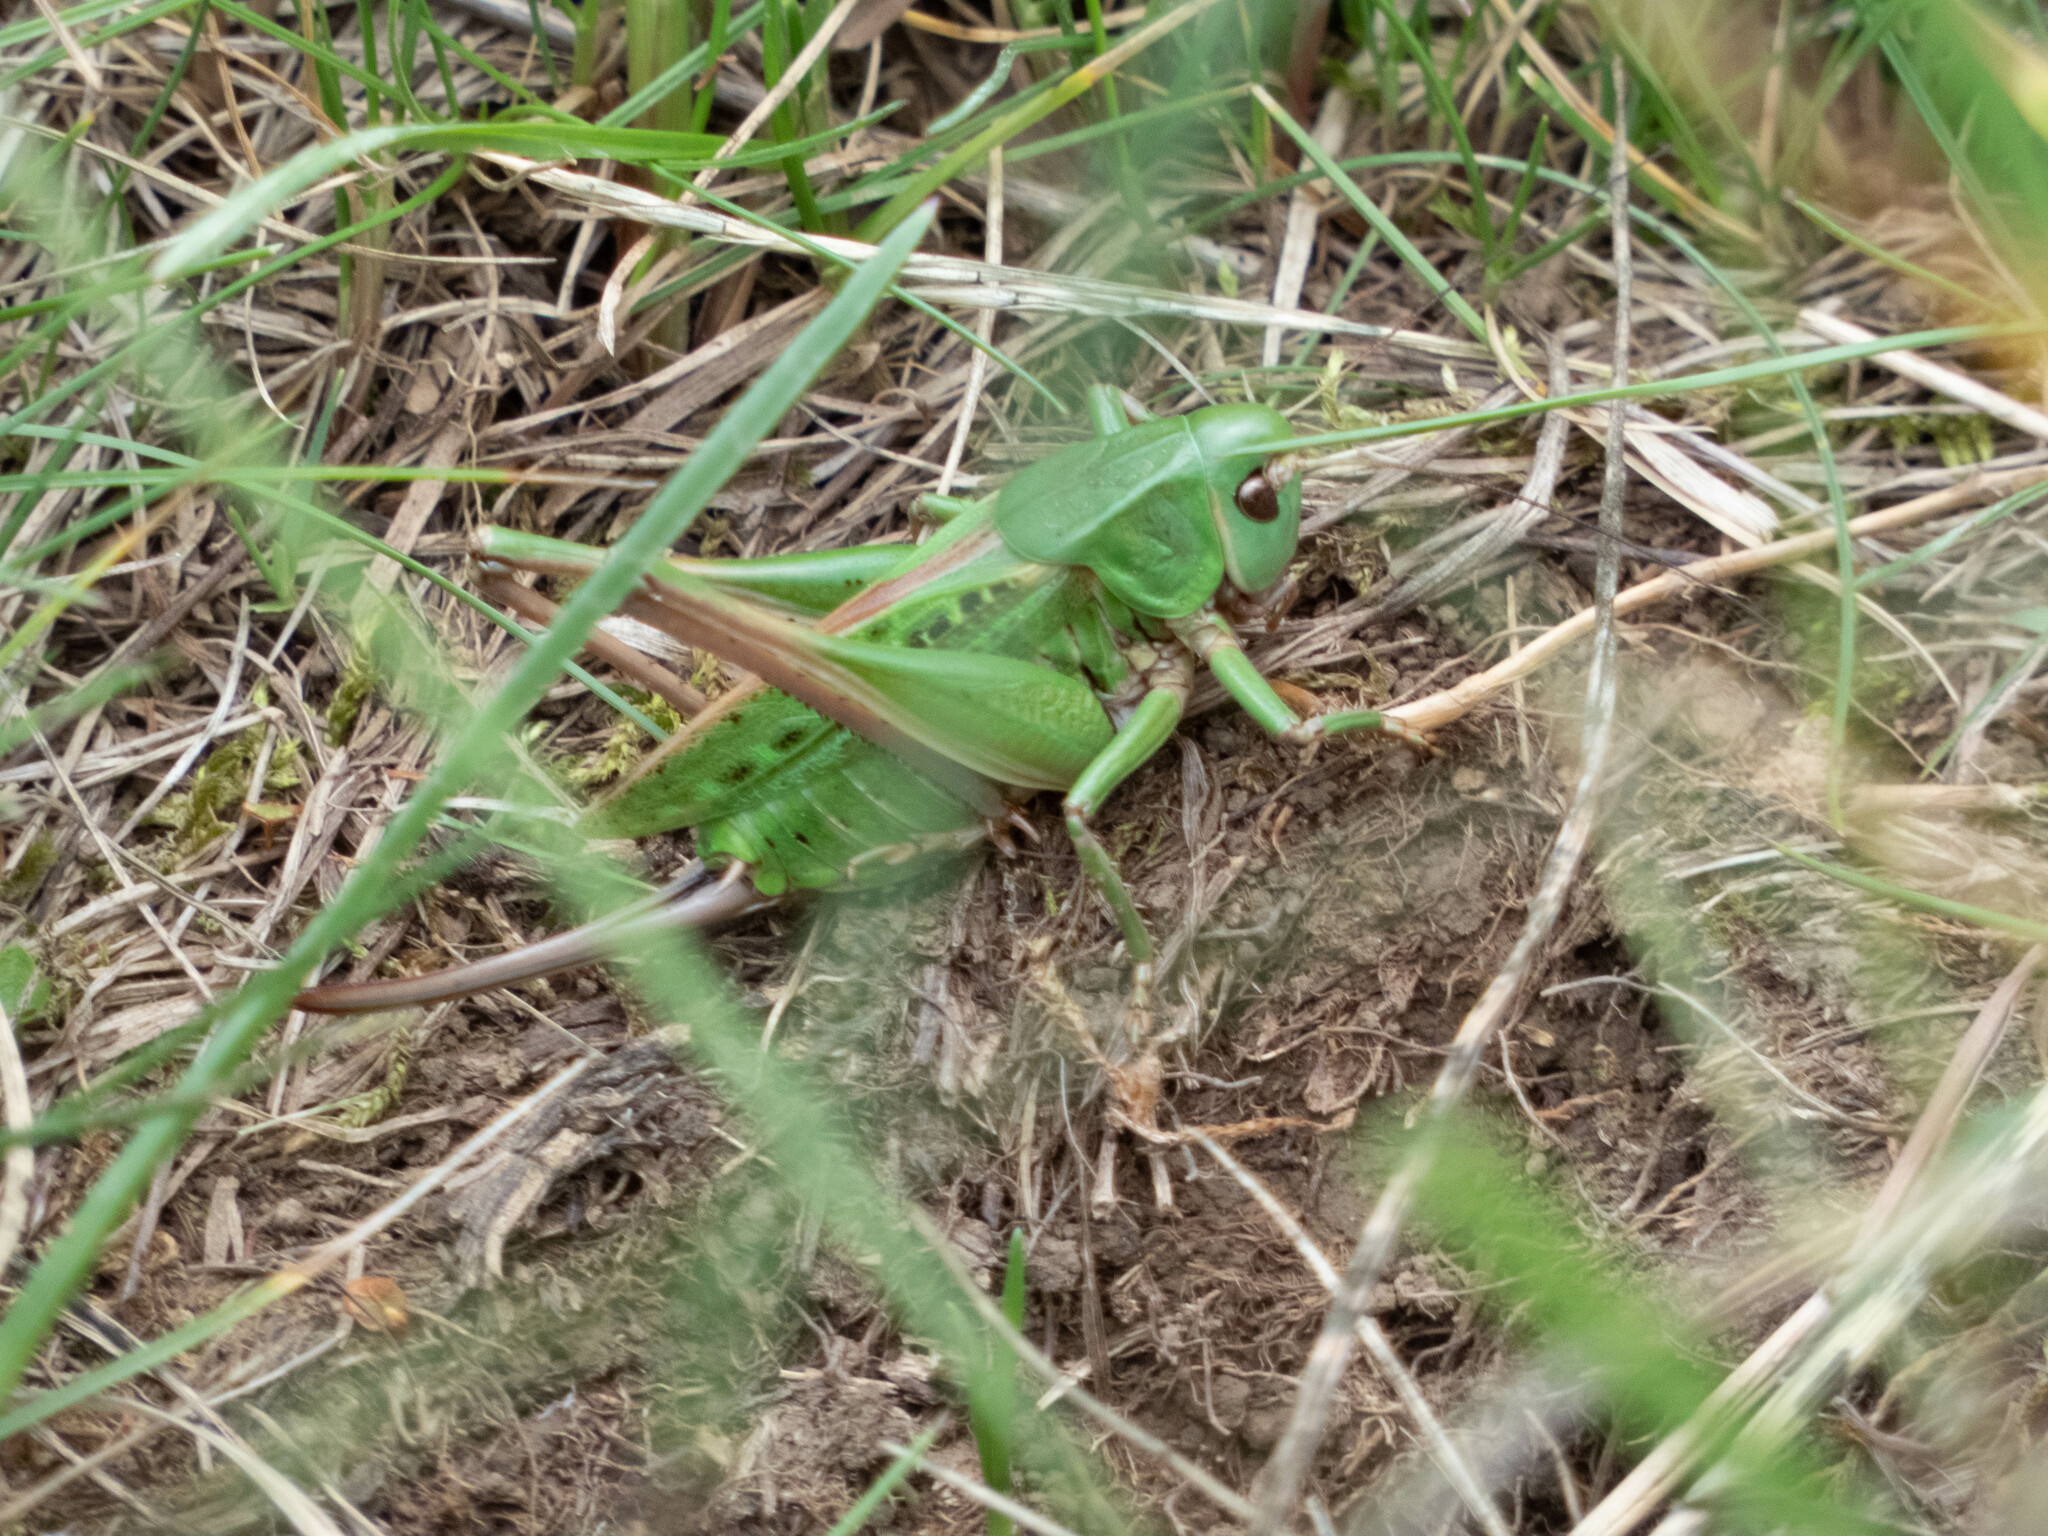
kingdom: Animalia
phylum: Arthropoda
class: Insecta
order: Orthoptera
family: Tettigoniidae
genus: Decticus
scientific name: Decticus verrucivorus
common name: Wart-biter
